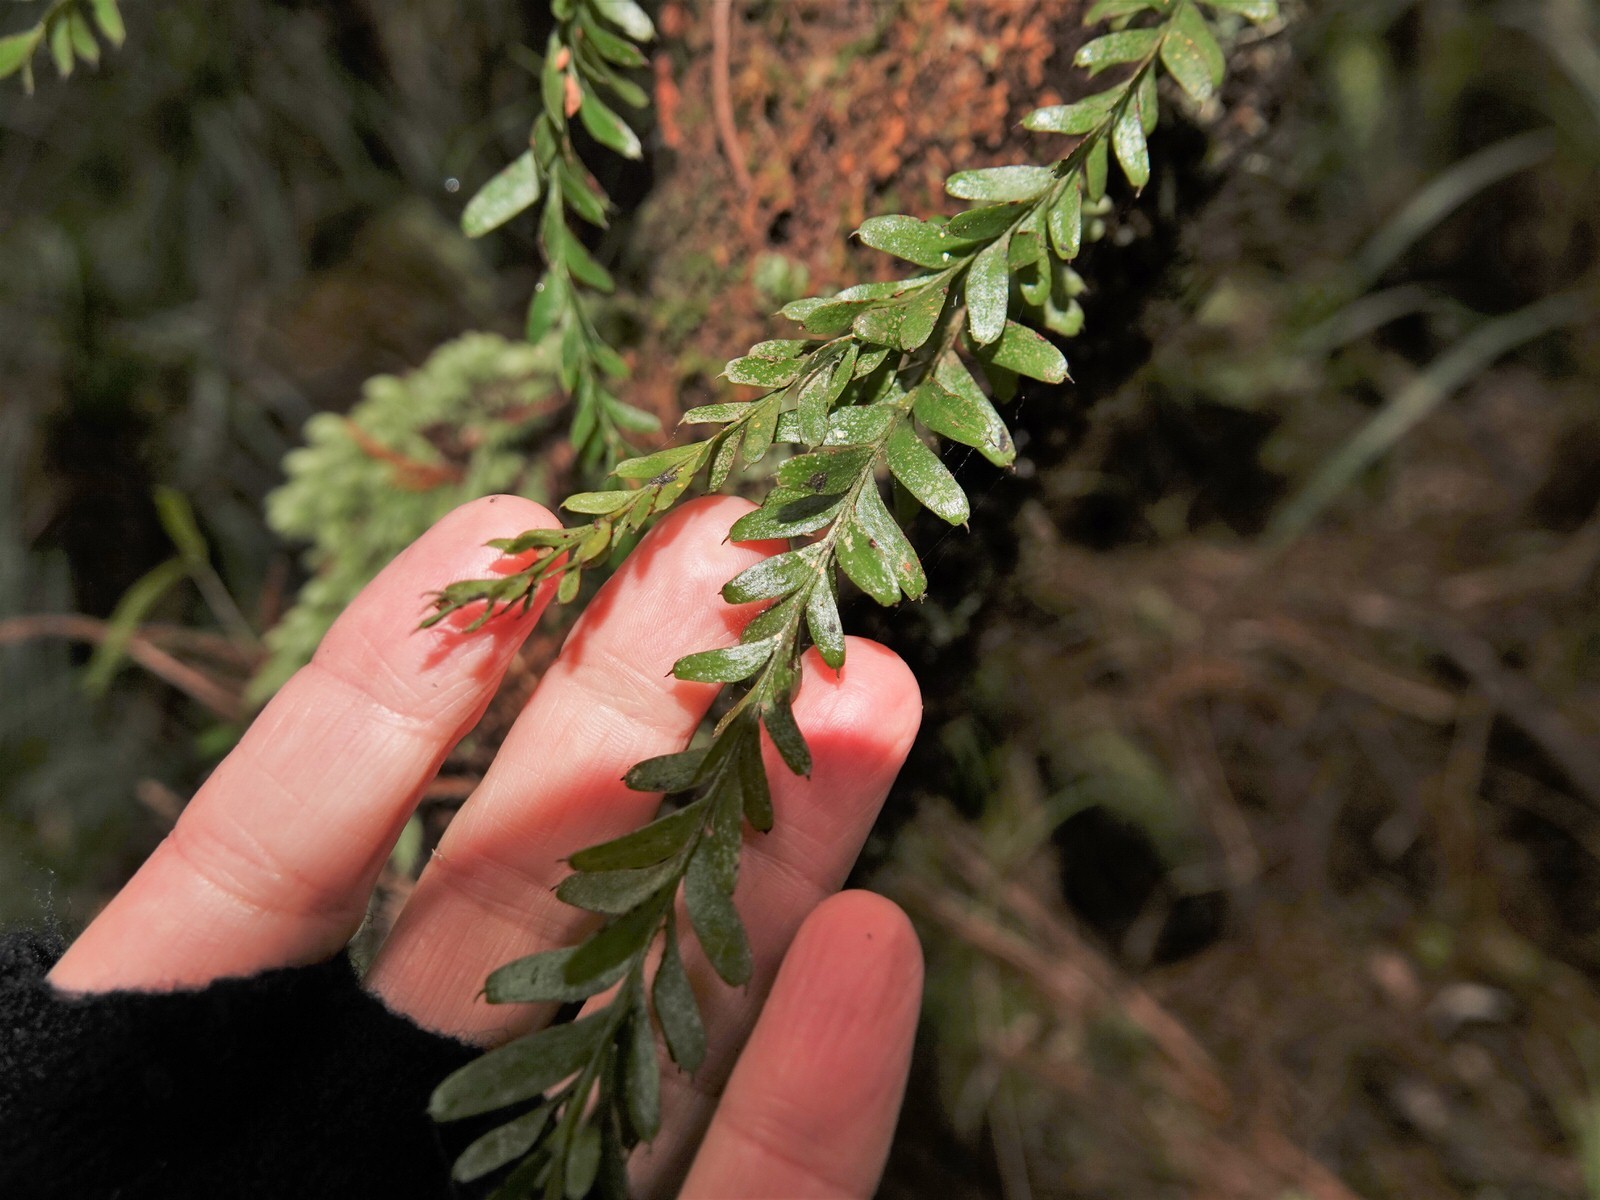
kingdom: Plantae
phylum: Tracheophyta
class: Polypodiopsida
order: Psilotales
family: Psilotaceae
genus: Tmesipteris
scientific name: Tmesipteris tannensis
